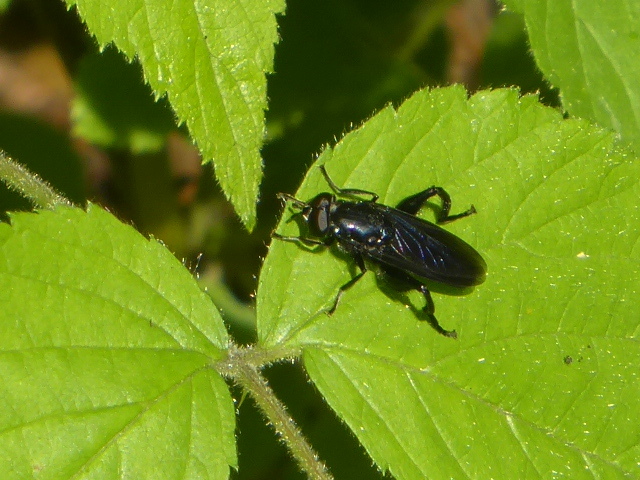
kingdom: Animalia
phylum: Arthropoda
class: Insecta
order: Diptera
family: Syrphidae
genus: Chalcosyrphus
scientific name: Chalcosyrphus chalybeus
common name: Violet leafwalker
